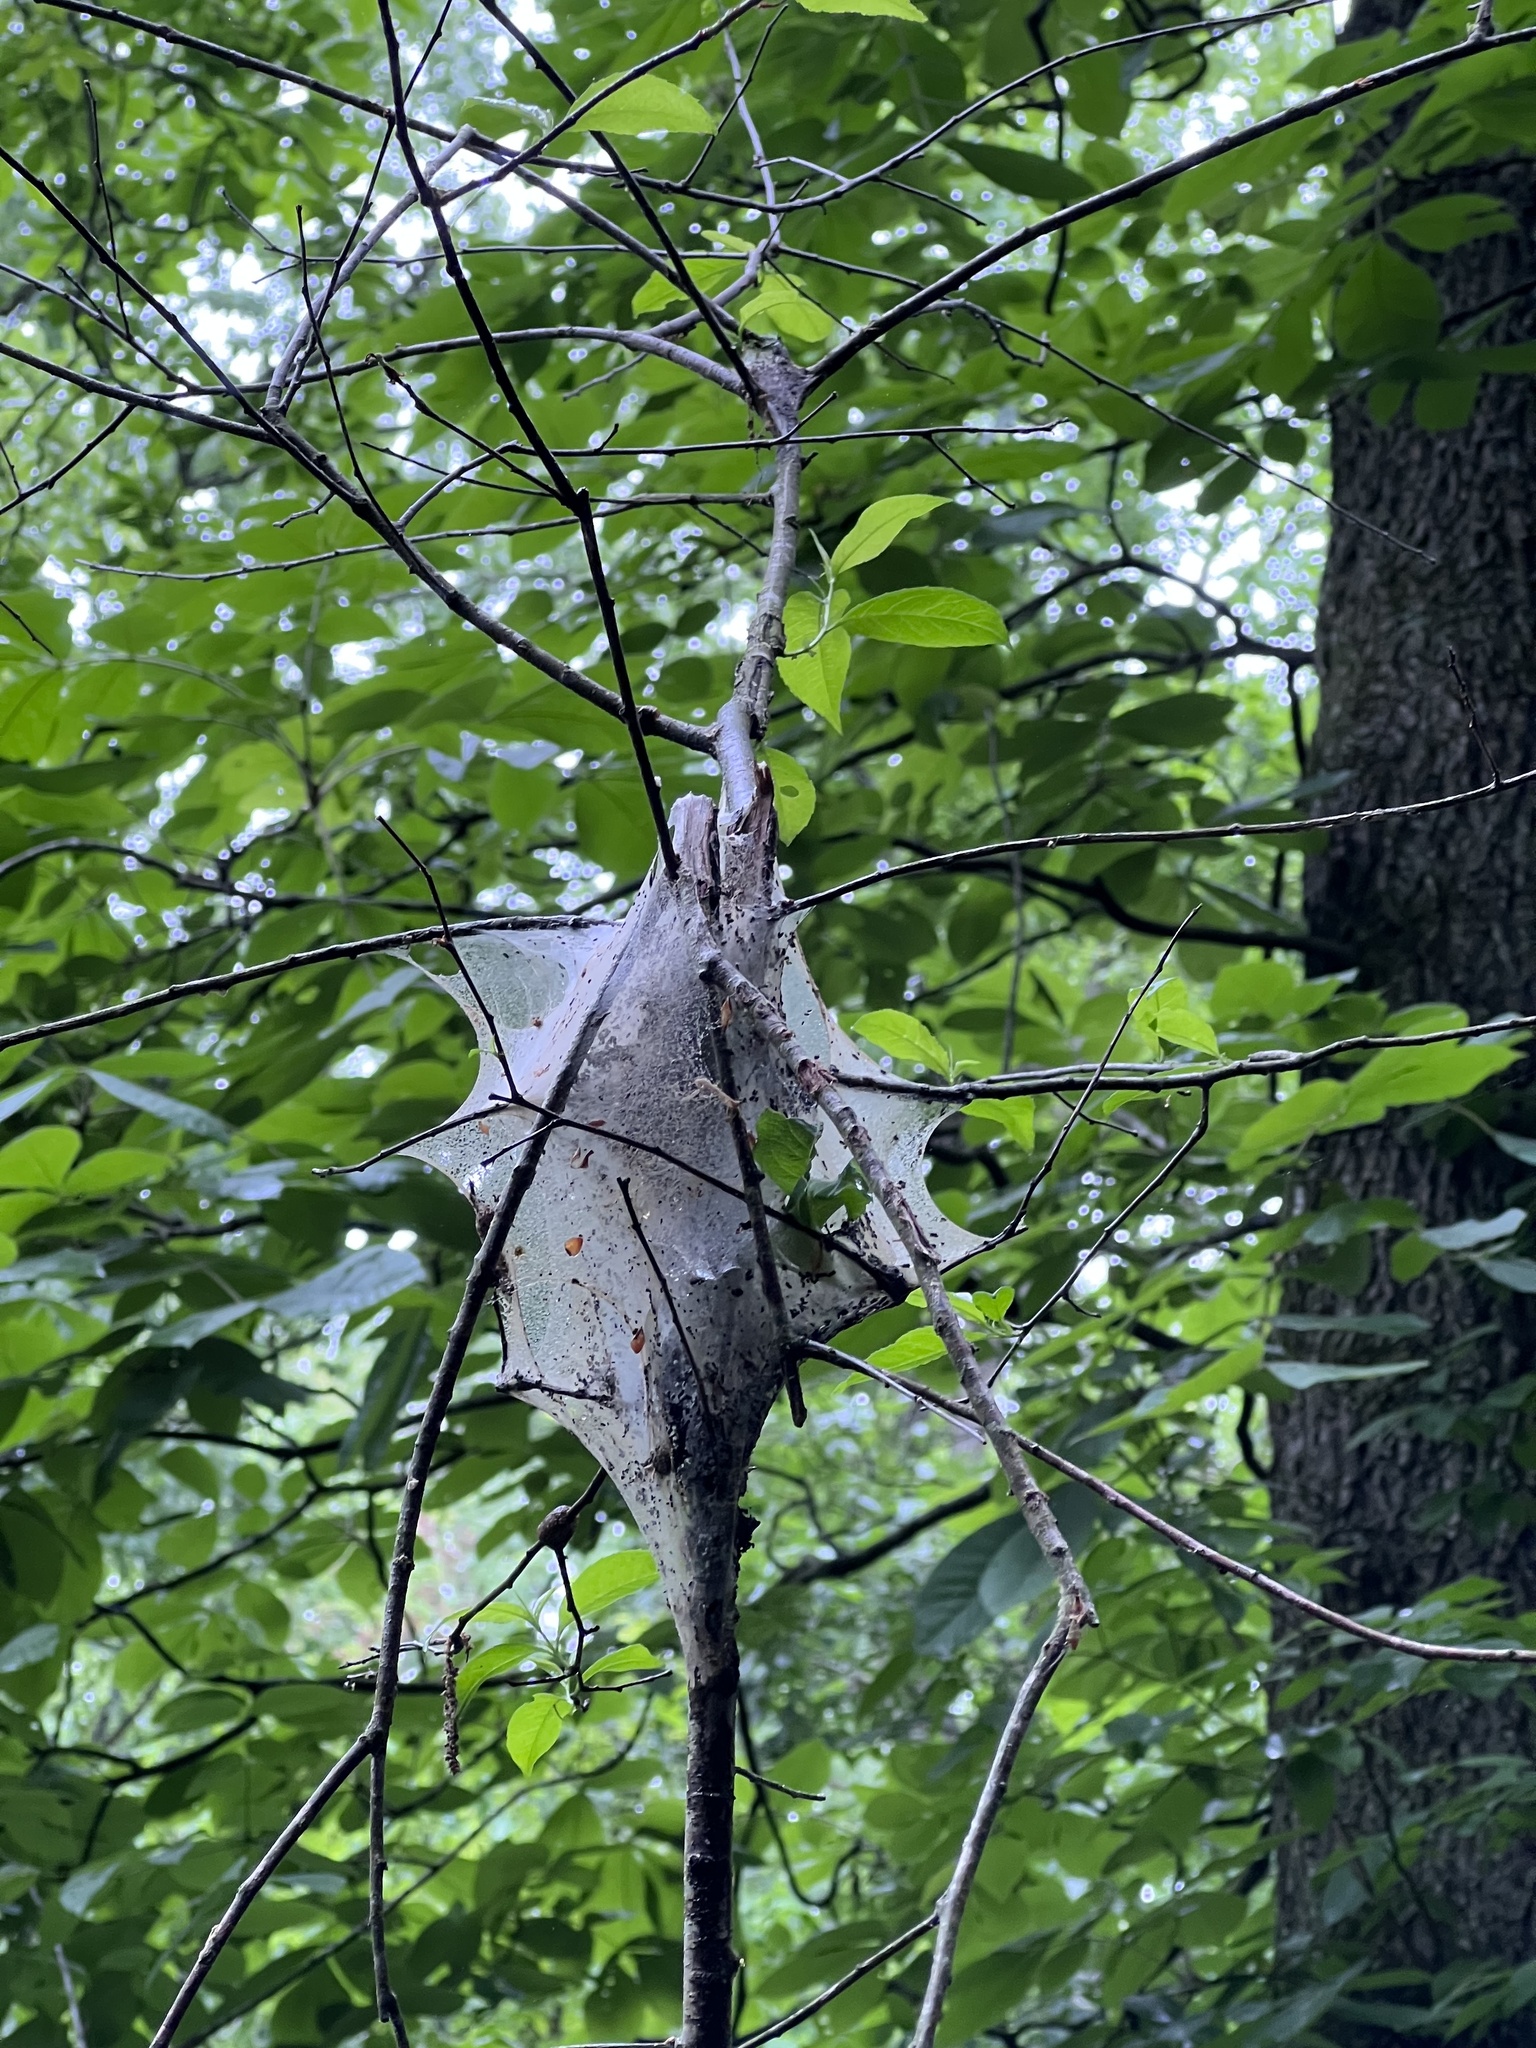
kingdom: Animalia
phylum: Arthropoda
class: Insecta
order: Lepidoptera
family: Lasiocampidae
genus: Malacosoma
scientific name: Malacosoma americana
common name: Eastern tent caterpillar moth
